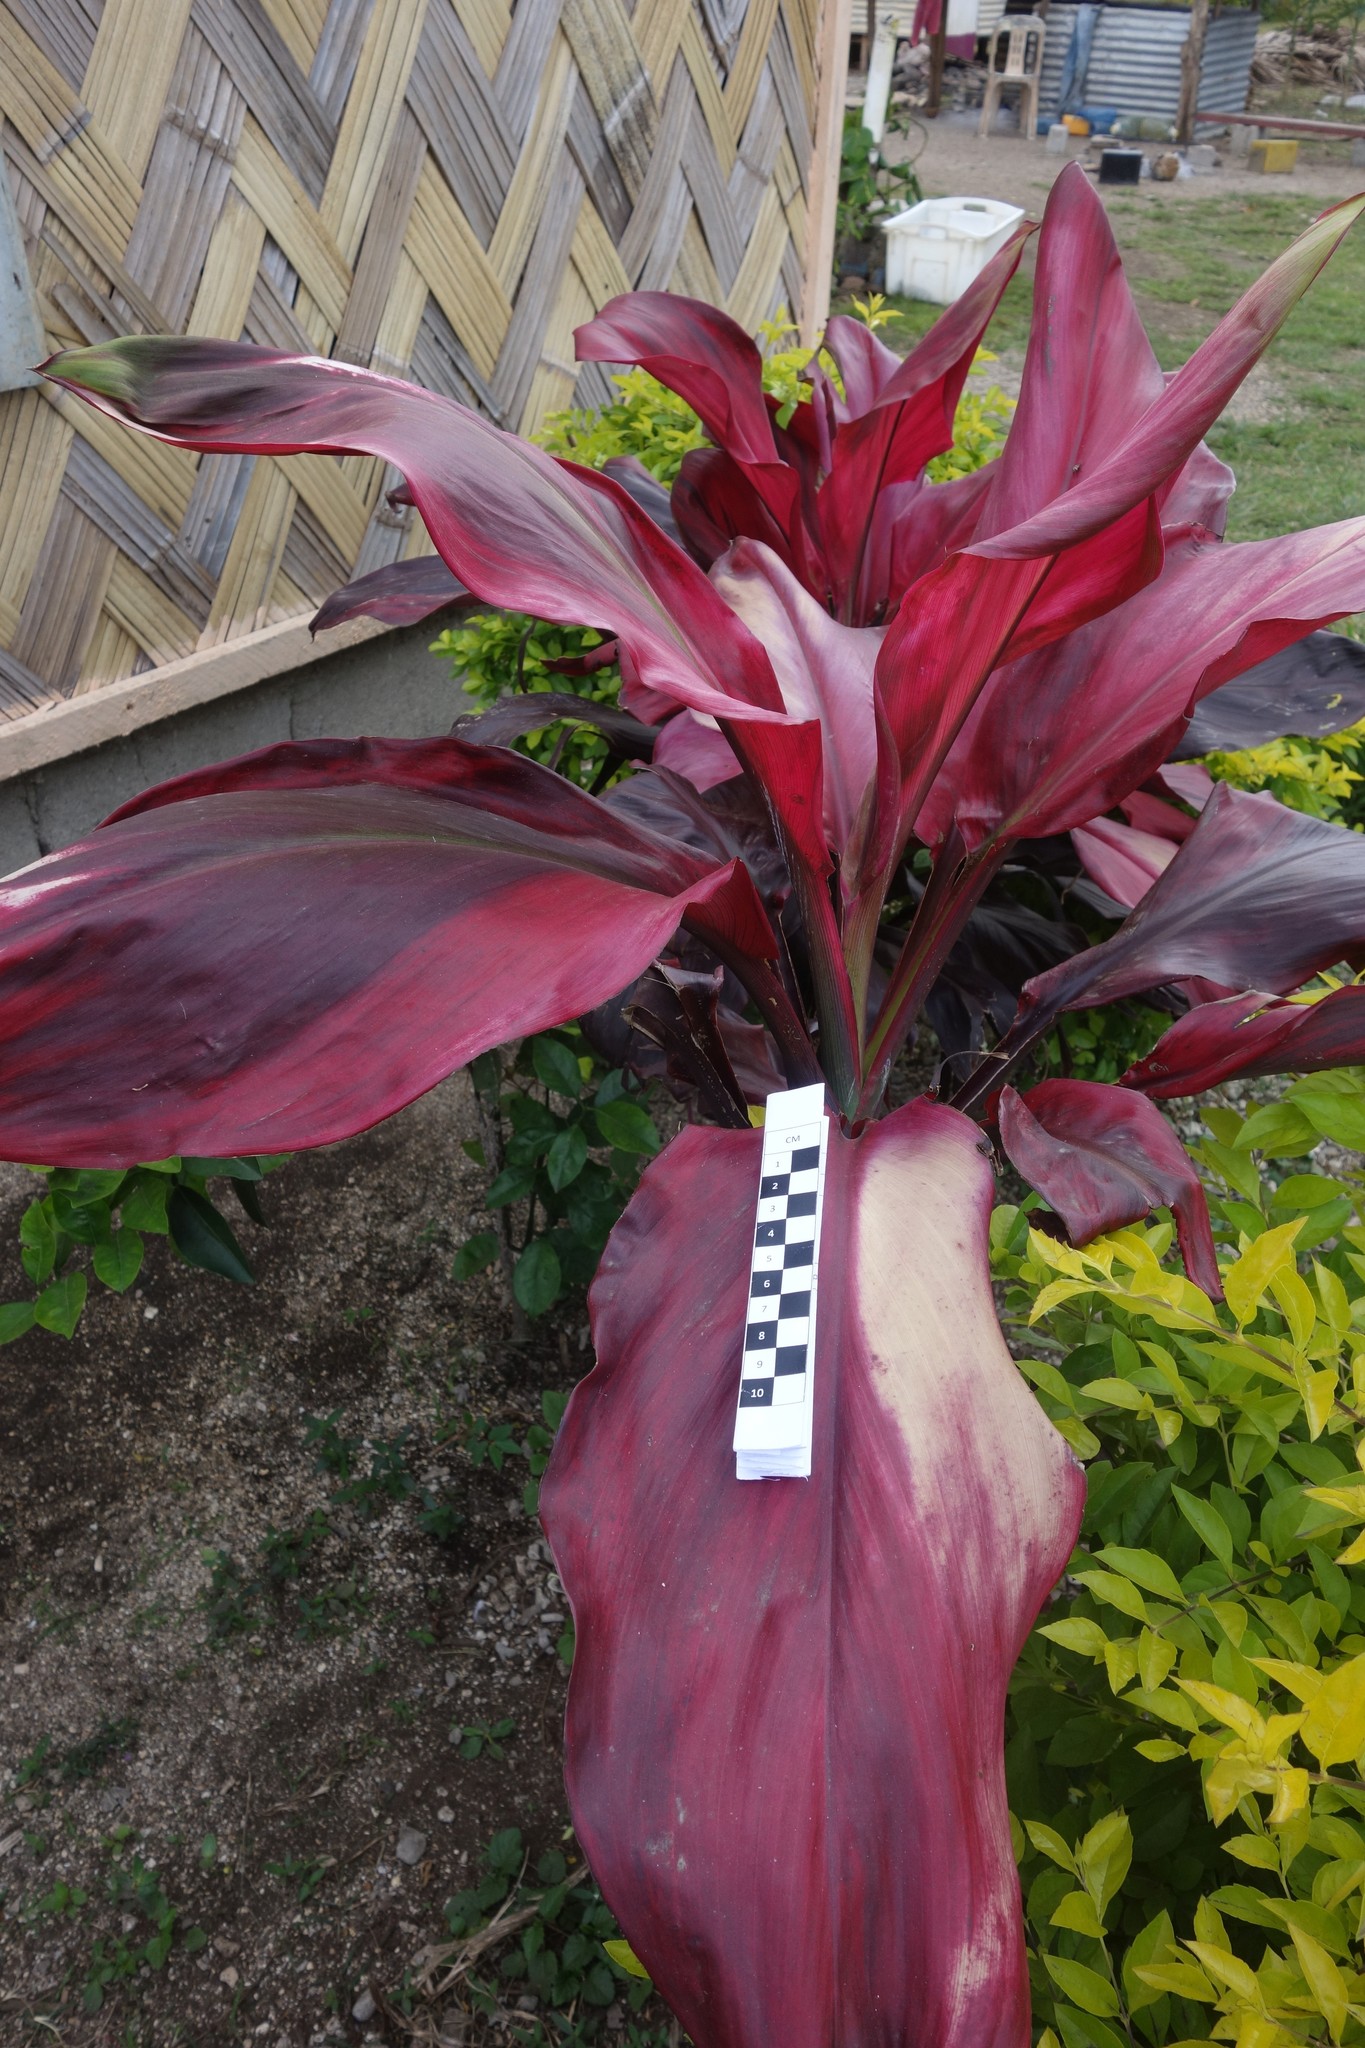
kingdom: Plantae
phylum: Tracheophyta
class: Liliopsida
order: Asparagales
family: Asparagaceae
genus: Cordyline
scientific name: Cordyline fruticosa
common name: Good-luck-plant
